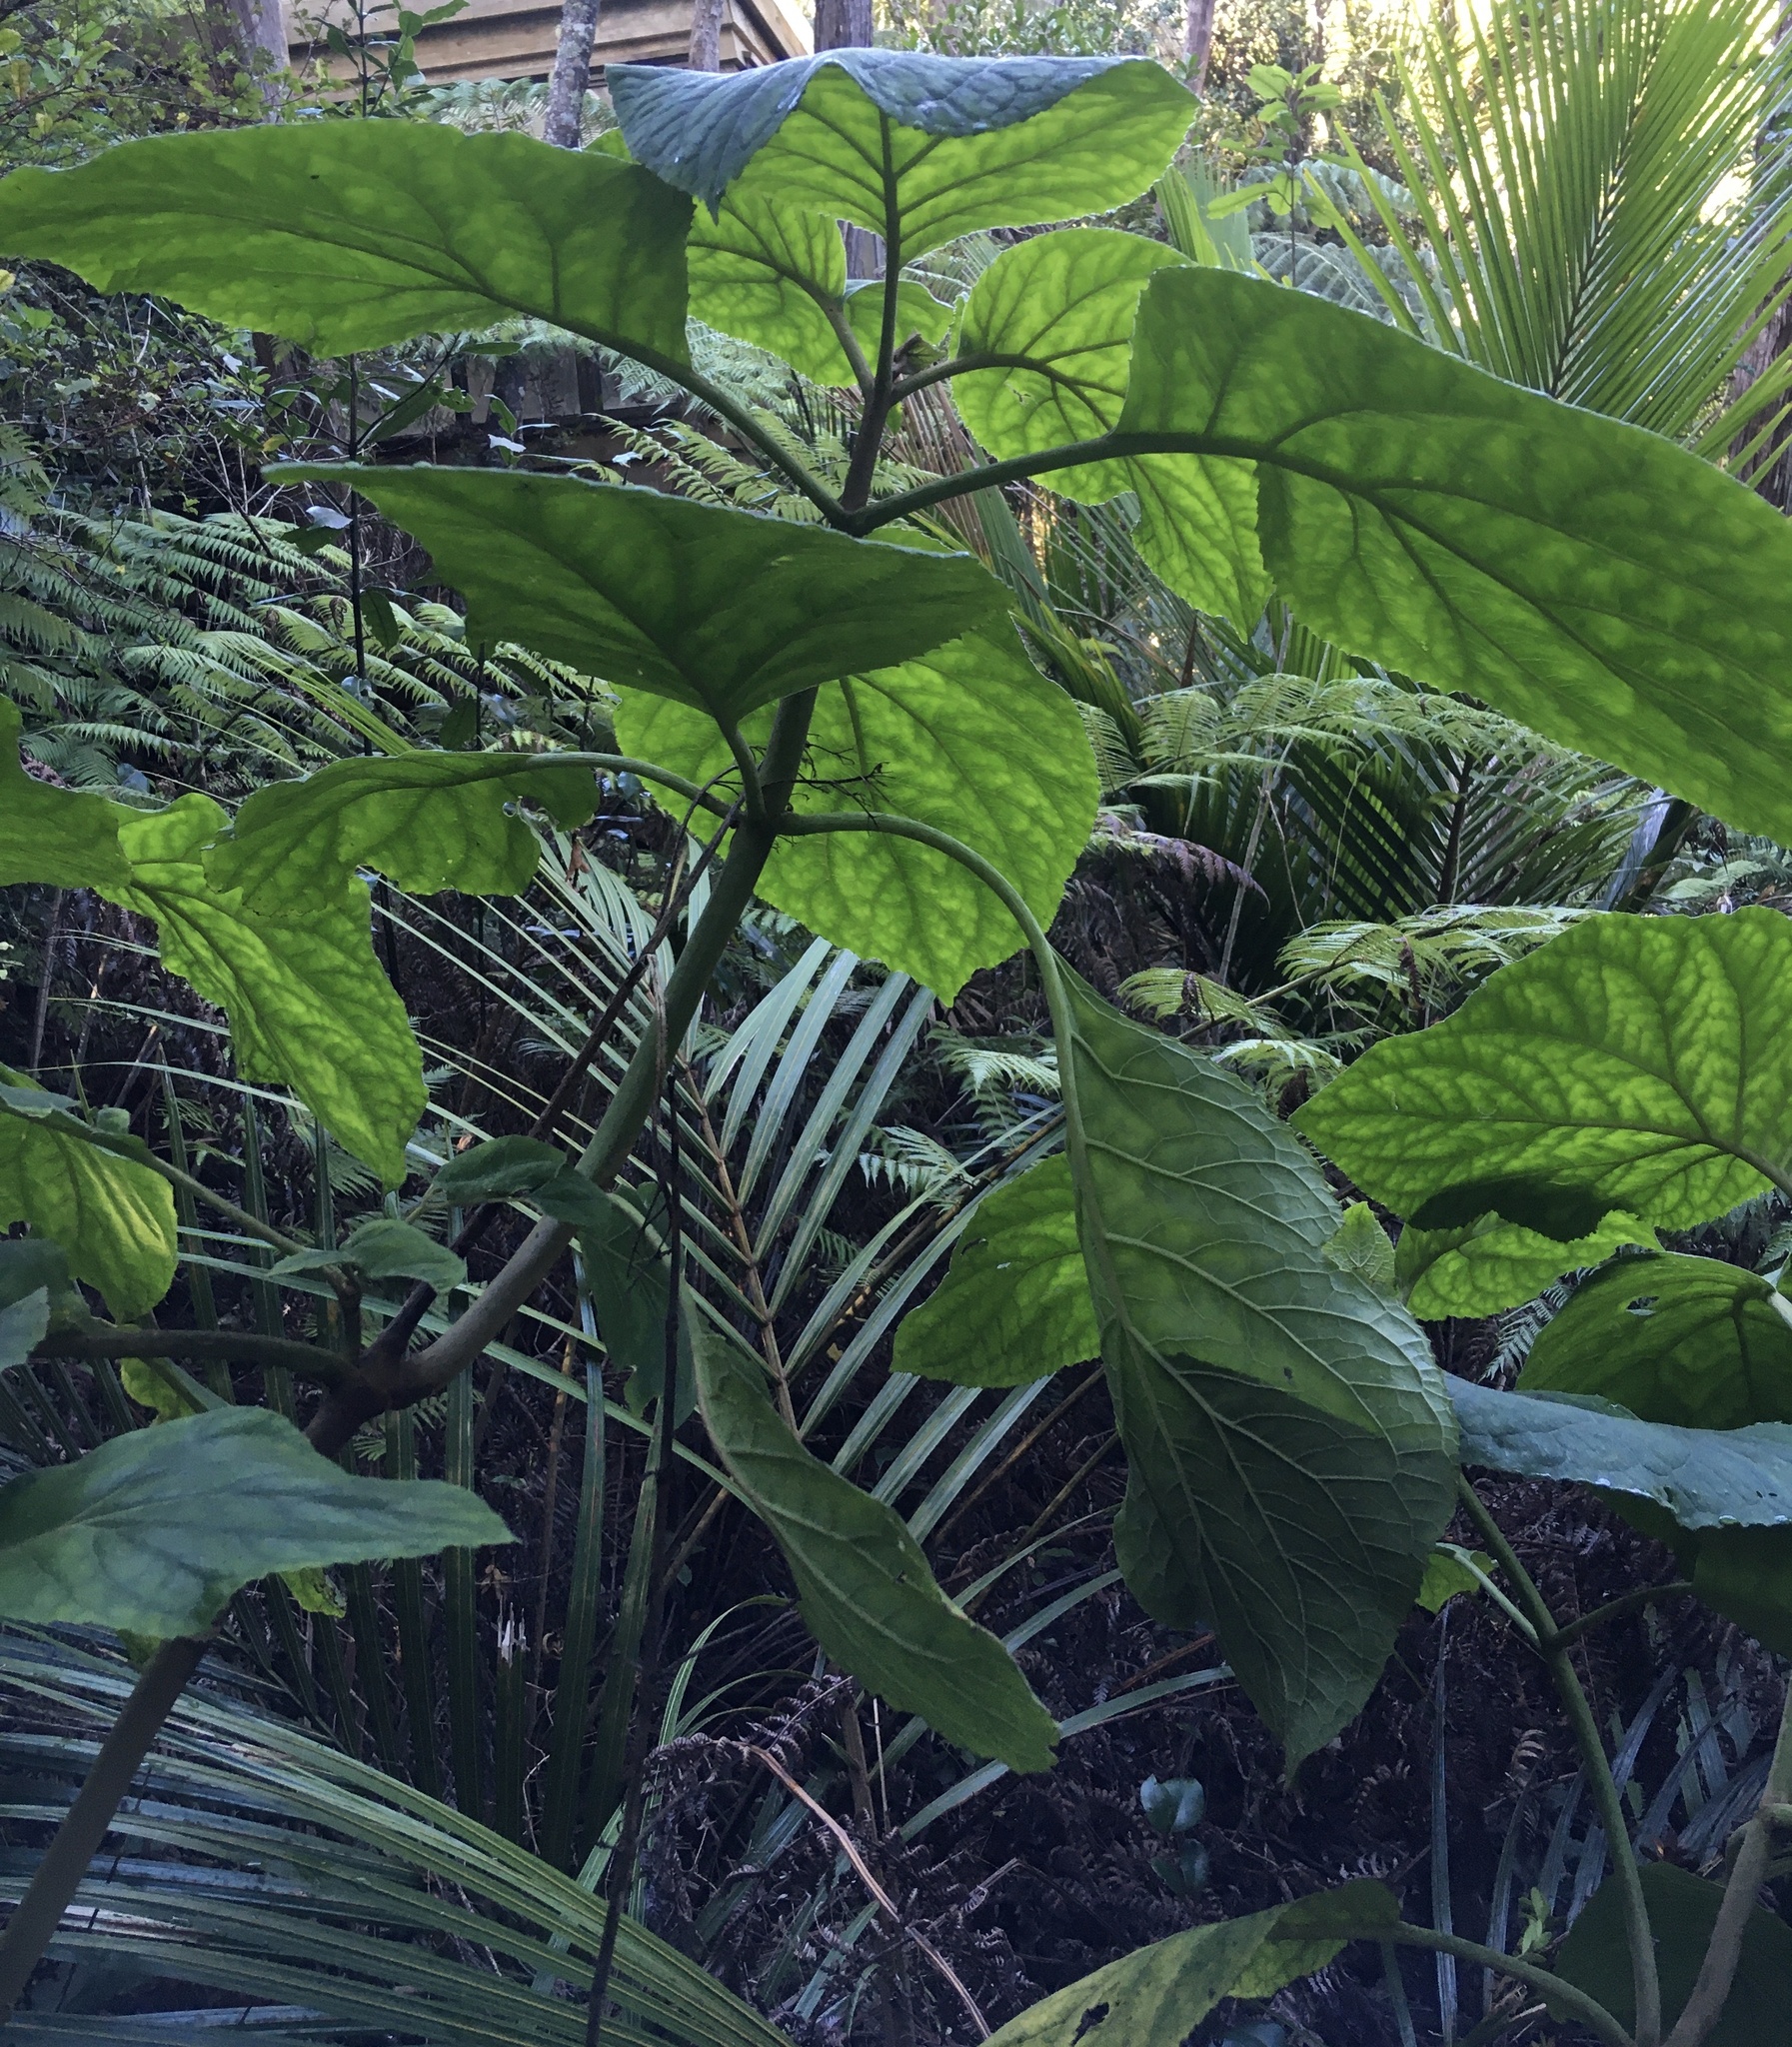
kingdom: Plantae
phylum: Tracheophyta
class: Magnoliopsida
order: Asterales
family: Asteraceae
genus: Bartlettina
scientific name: Bartlettina sordida
